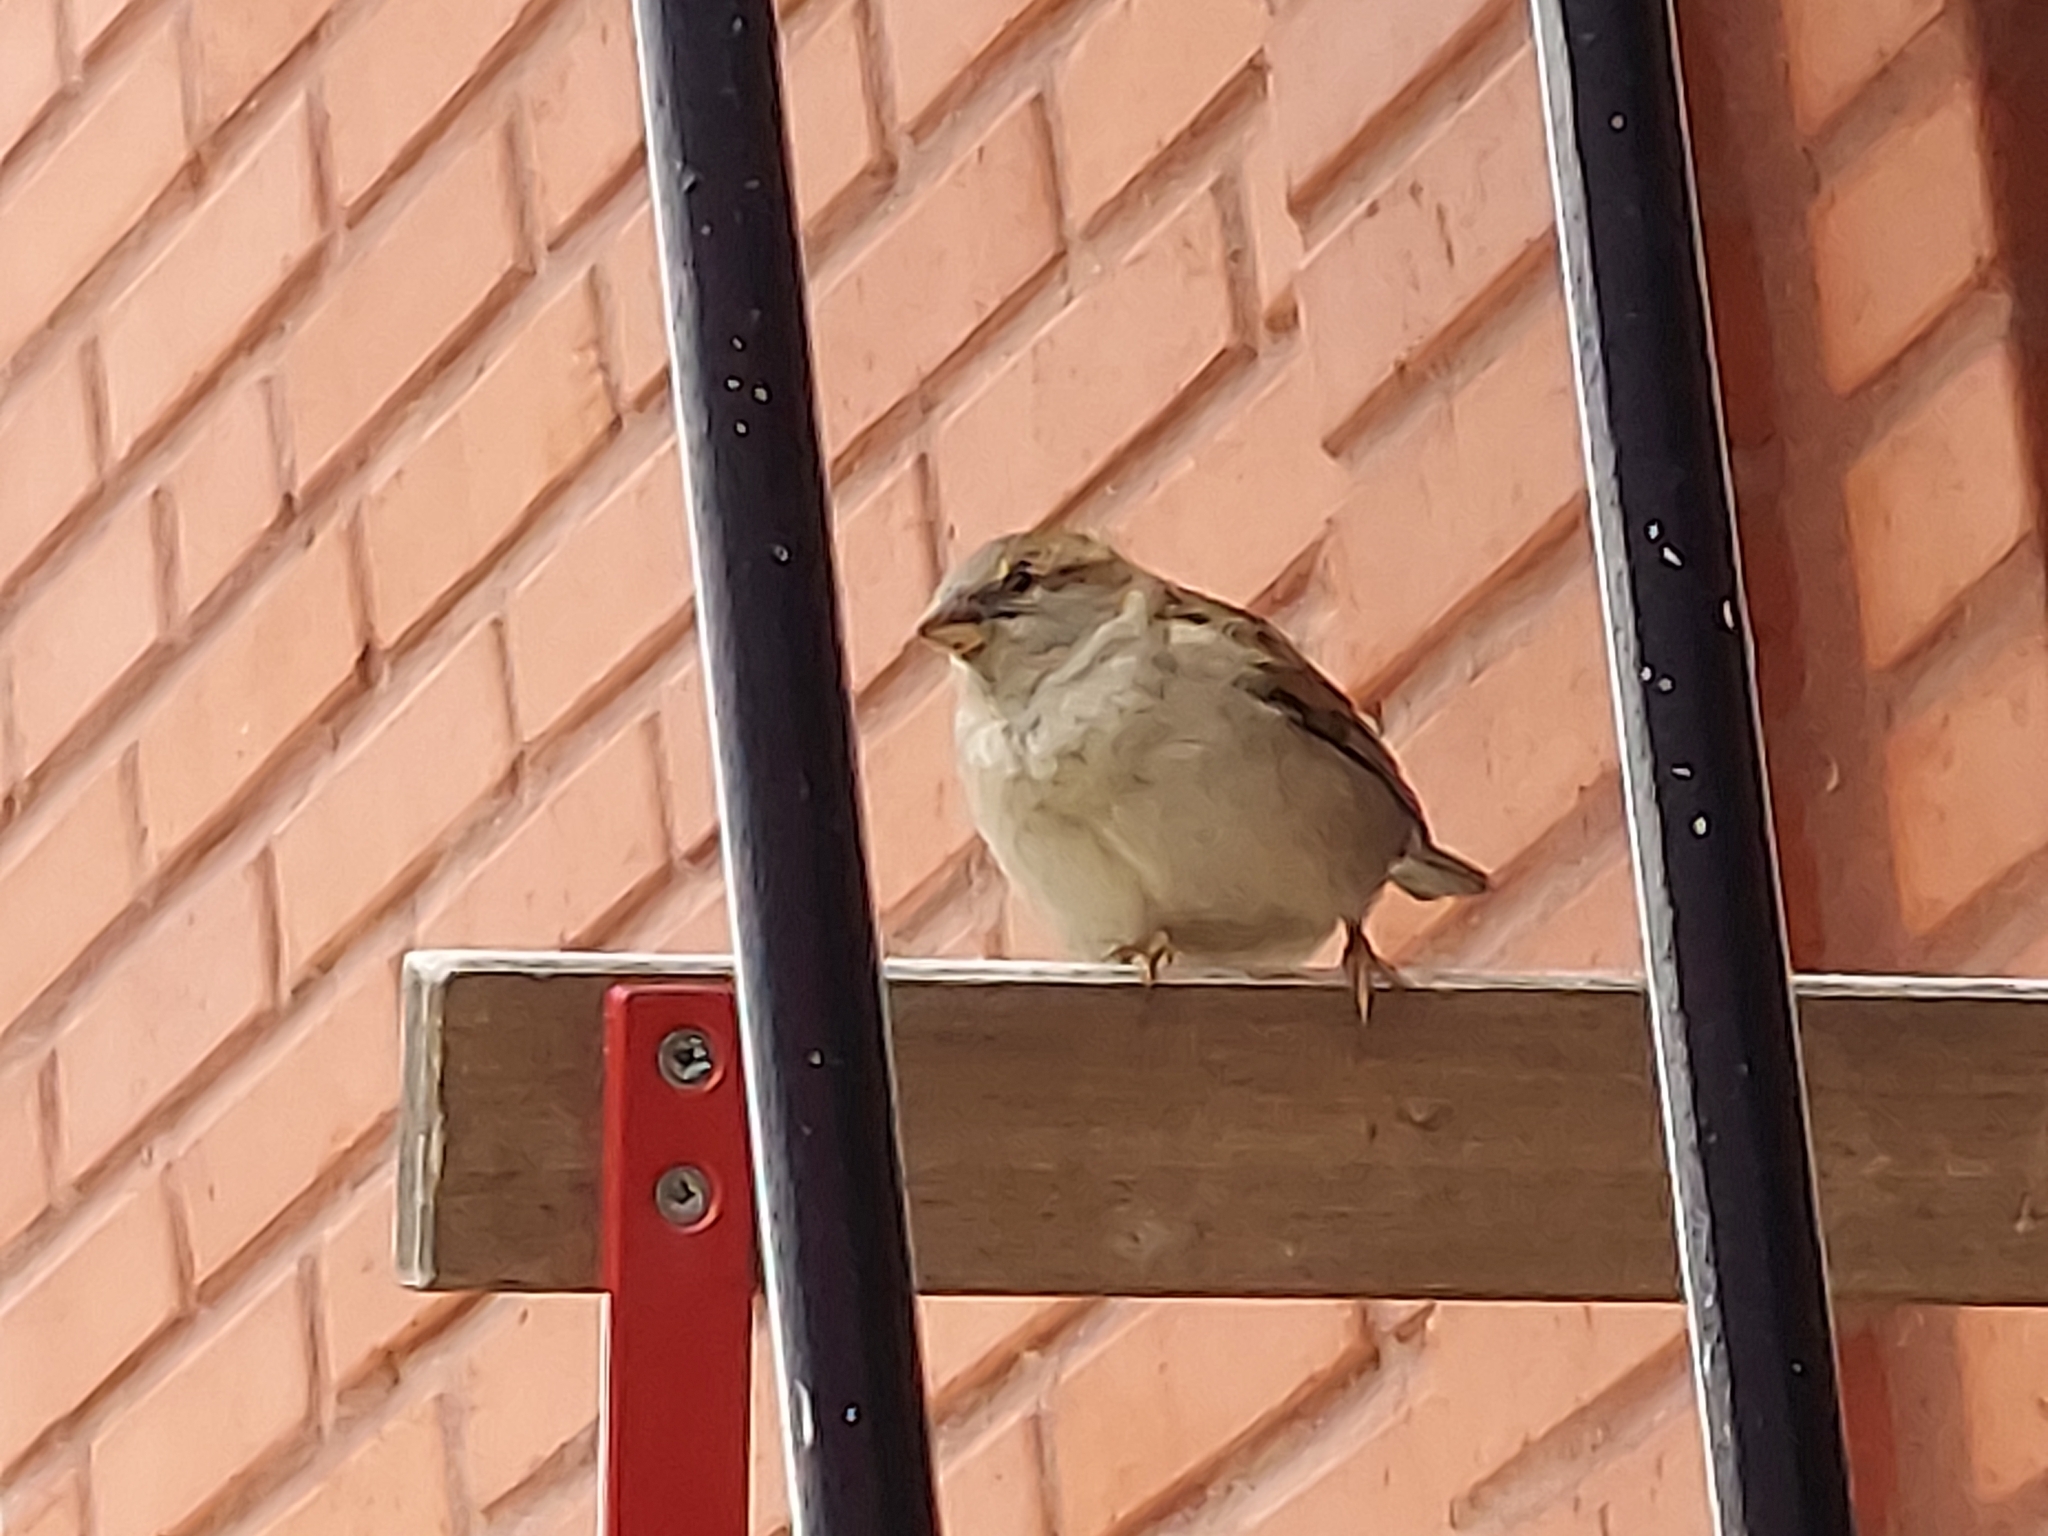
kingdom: Animalia
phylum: Chordata
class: Aves
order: Passeriformes
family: Passeridae
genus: Passer
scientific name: Passer domesticus
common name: House sparrow
